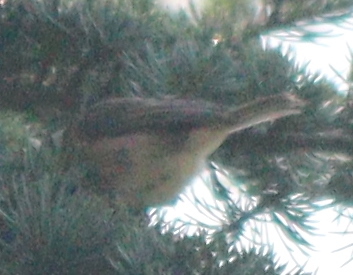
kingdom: Animalia
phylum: Chordata
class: Aves
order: Passeriformes
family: Paridae
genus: Lophophanes
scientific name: Lophophanes cristatus
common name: European crested tit
